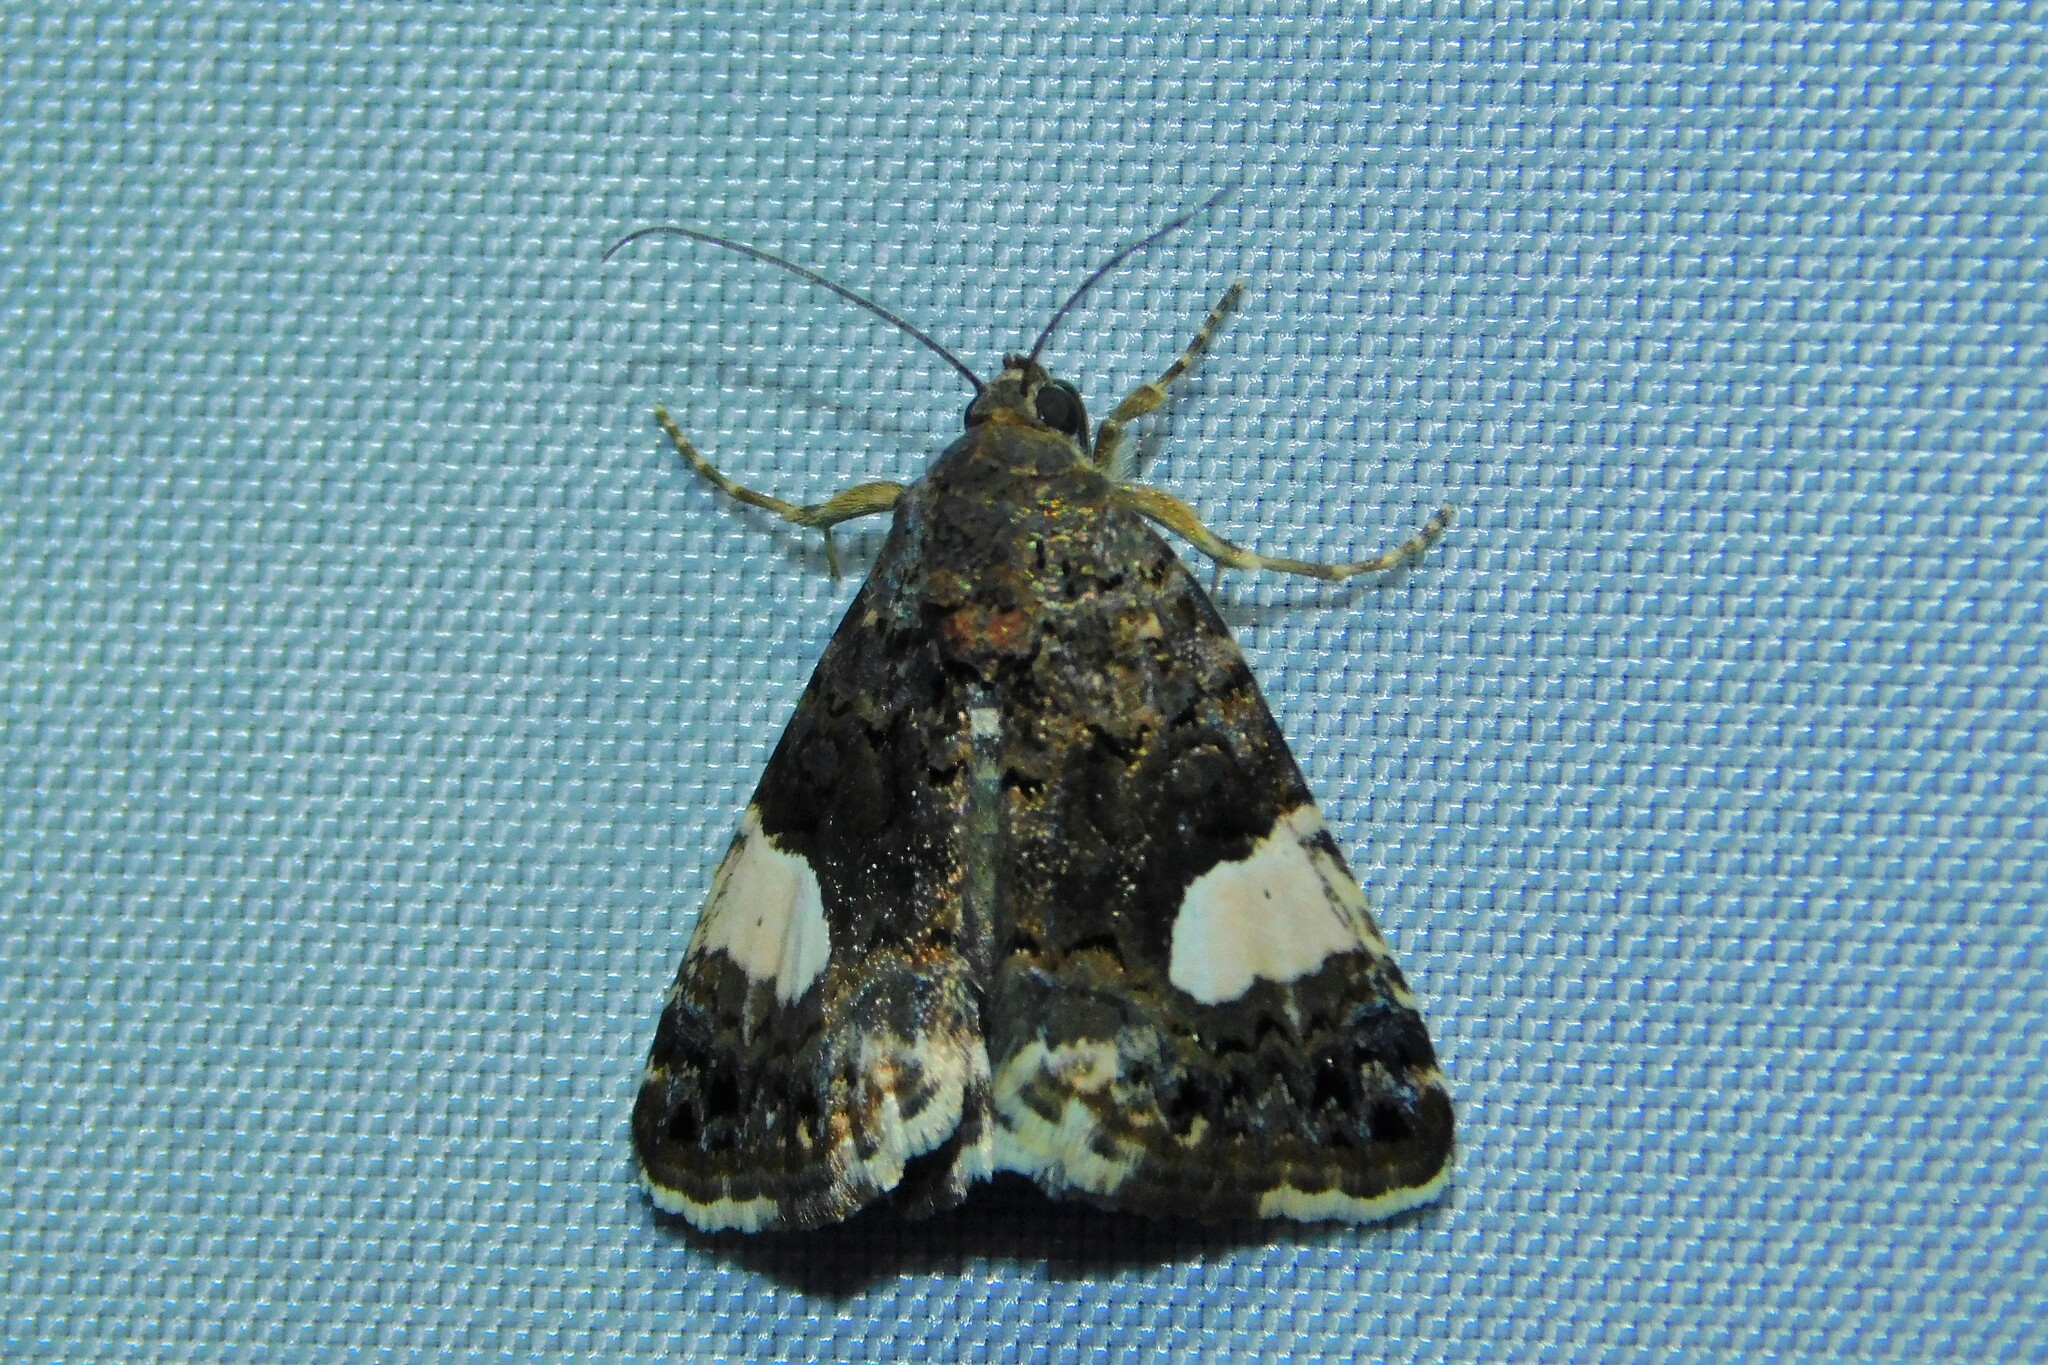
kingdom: Animalia
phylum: Arthropoda
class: Insecta
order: Lepidoptera
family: Erebidae
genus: Tyta
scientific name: Tyta luctuosa
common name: Four-spotted
